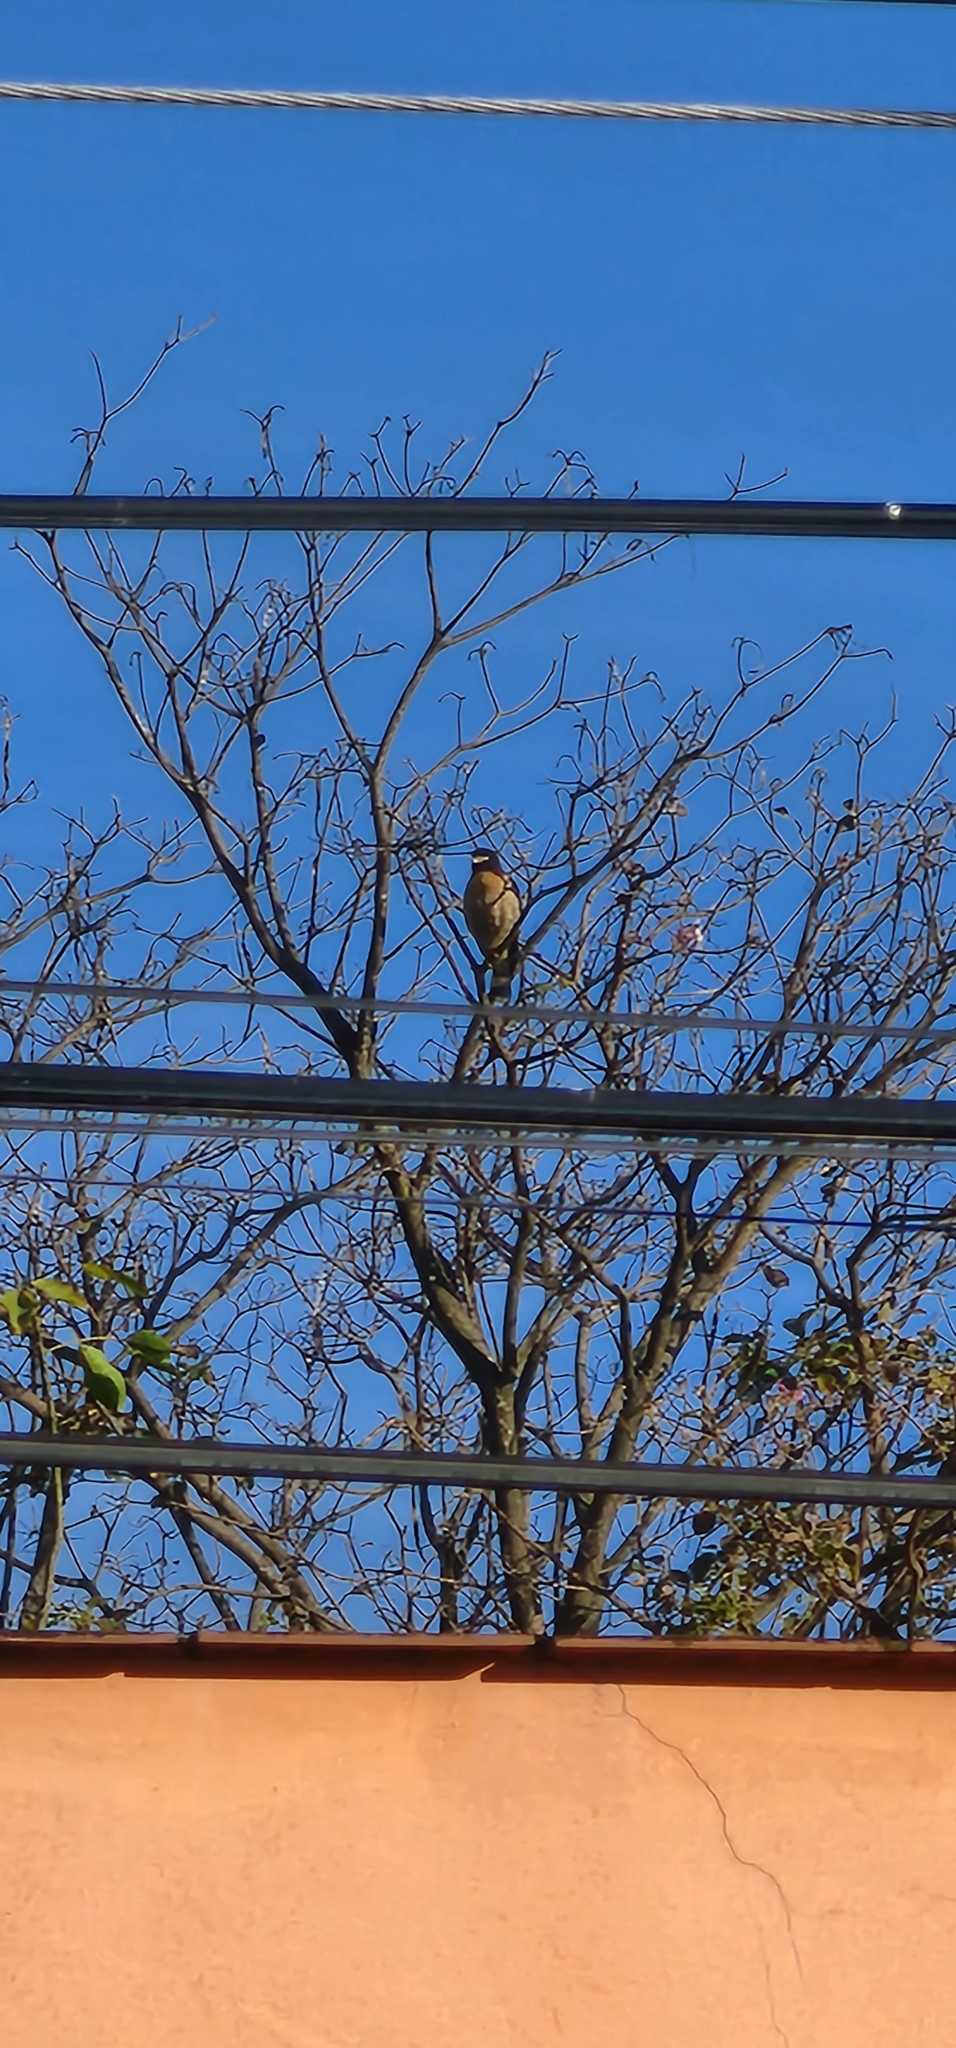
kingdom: Animalia
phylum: Chordata
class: Aves
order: Accipitriformes
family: Accipitridae
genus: Rupornis
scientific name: Rupornis magnirostris
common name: Roadside hawk
